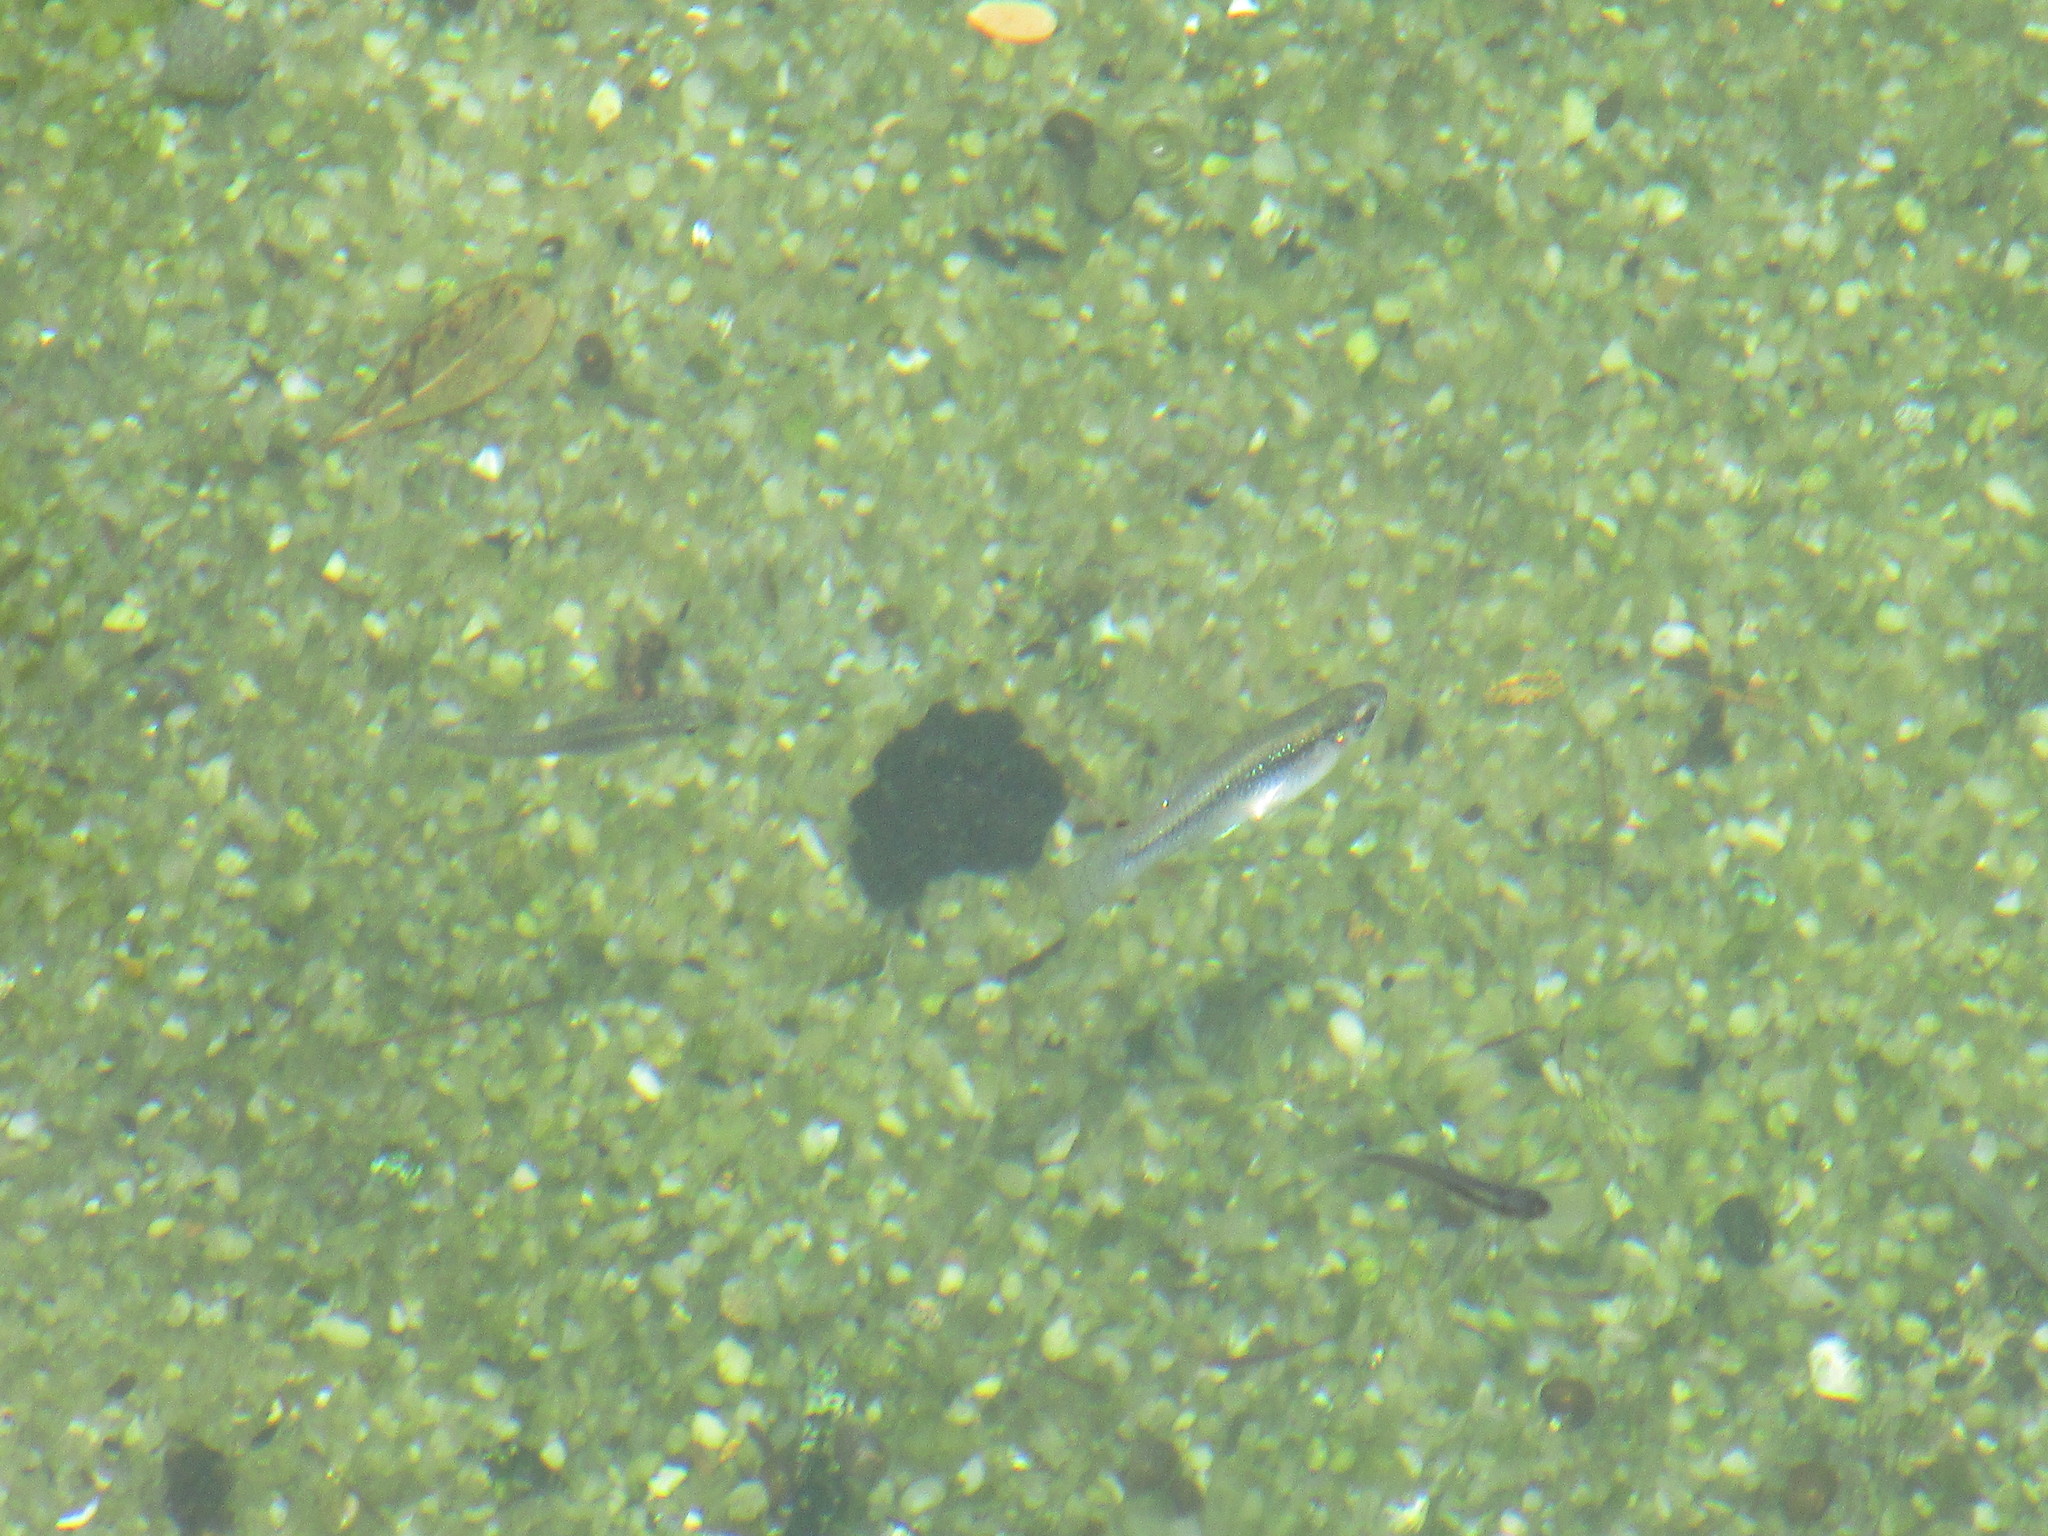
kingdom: Animalia
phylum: Chordata
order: Cyprinodontiformes
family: Poeciliidae
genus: Gambusia
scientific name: Gambusia holbrooki
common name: Eastern mosquitofish
